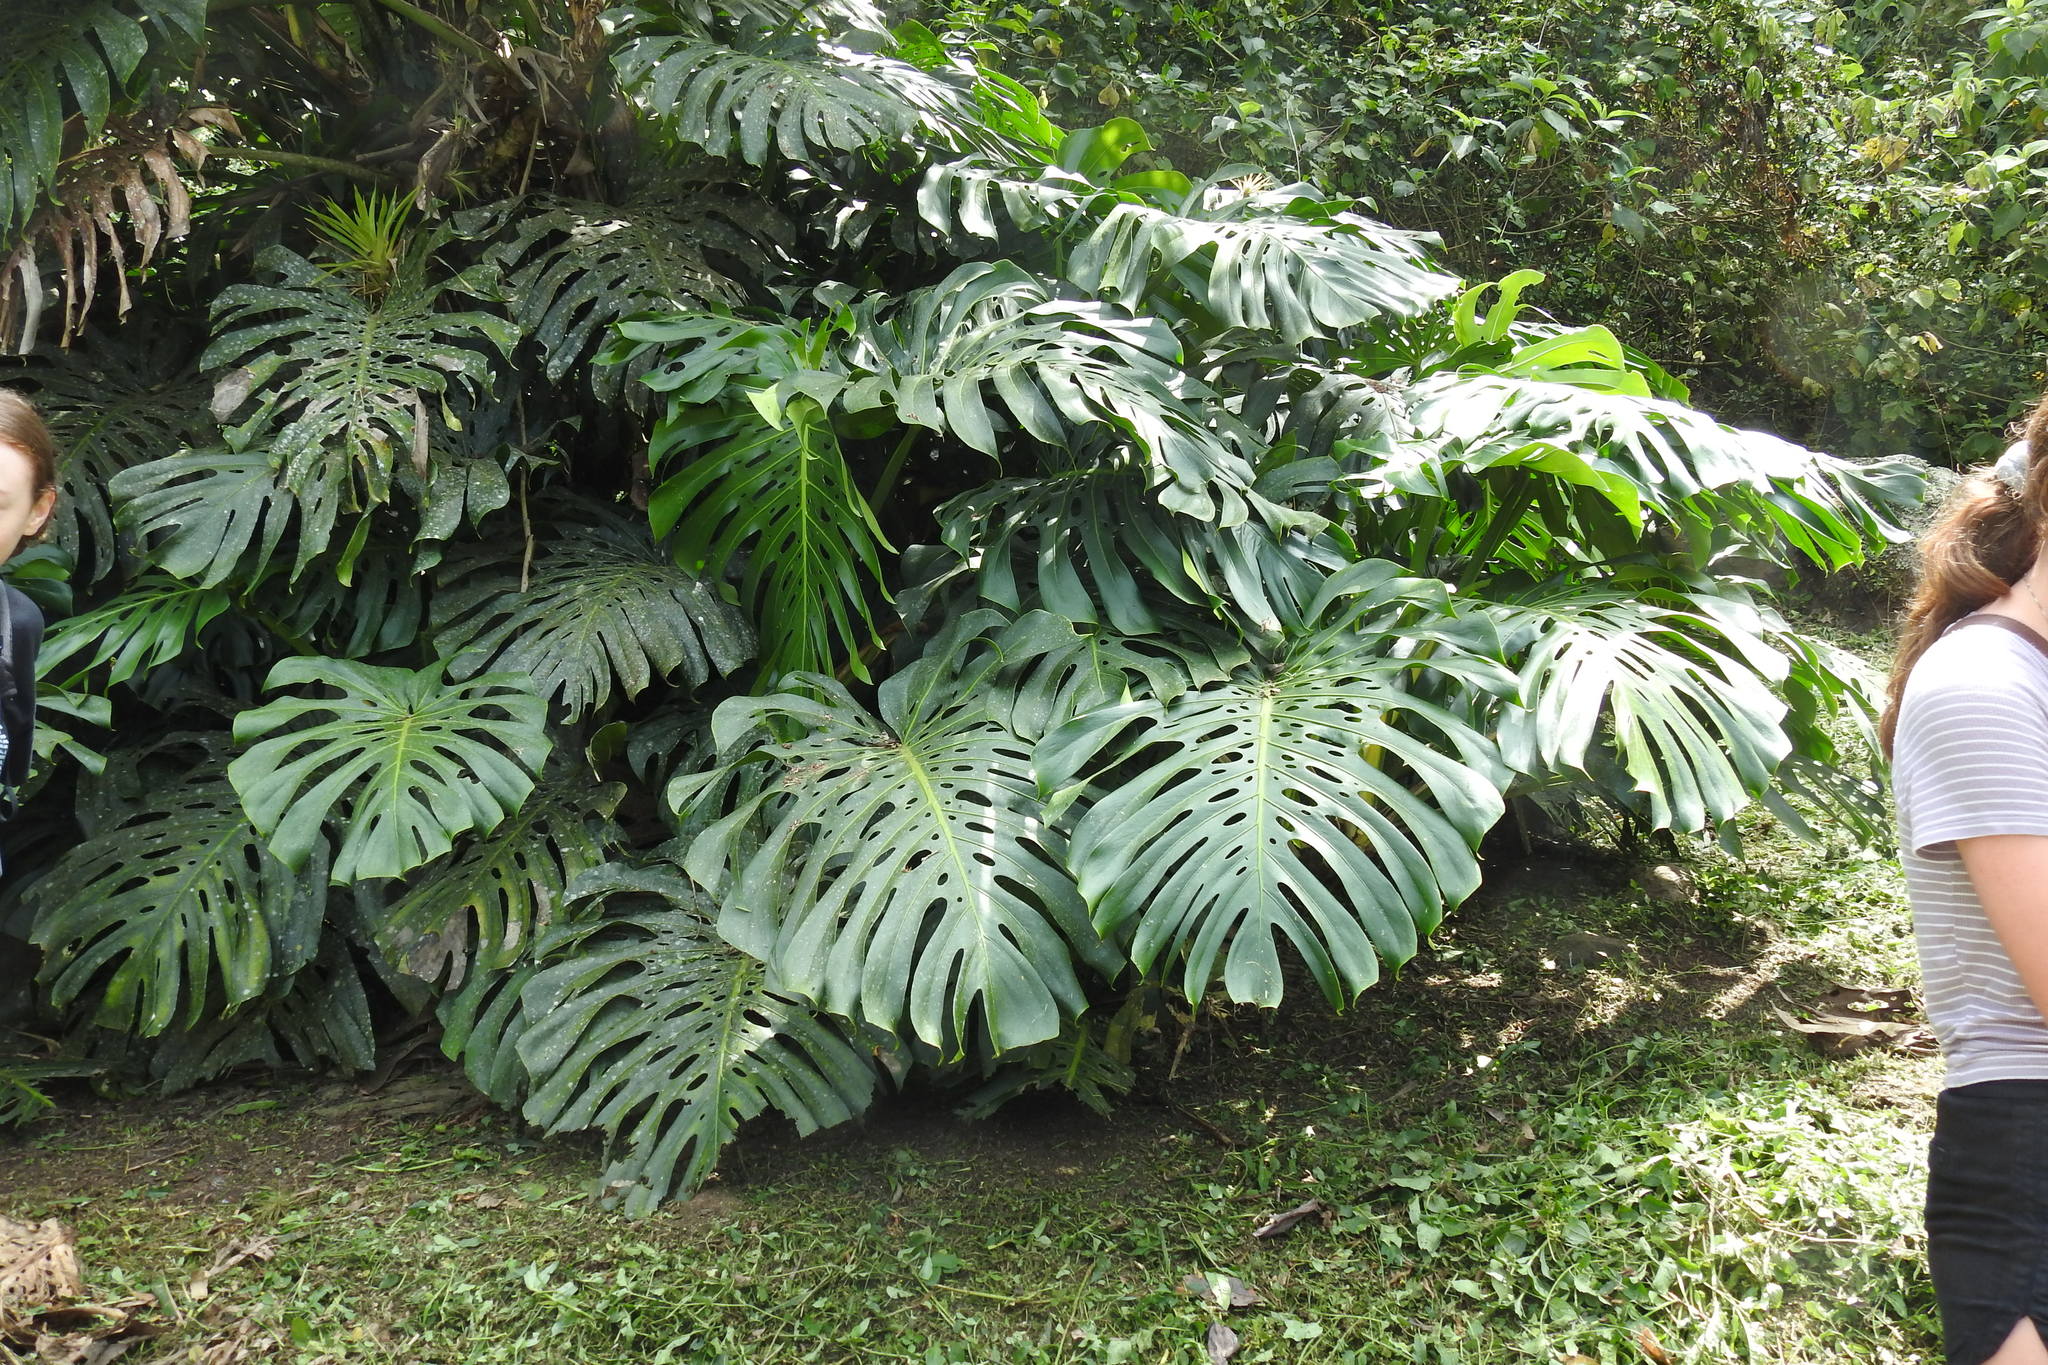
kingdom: Plantae
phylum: Tracheophyta
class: Liliopsida
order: Alismatales
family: Araceae
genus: Monstera
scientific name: Monstera deliciosa
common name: Cut-leaf-philodendron
